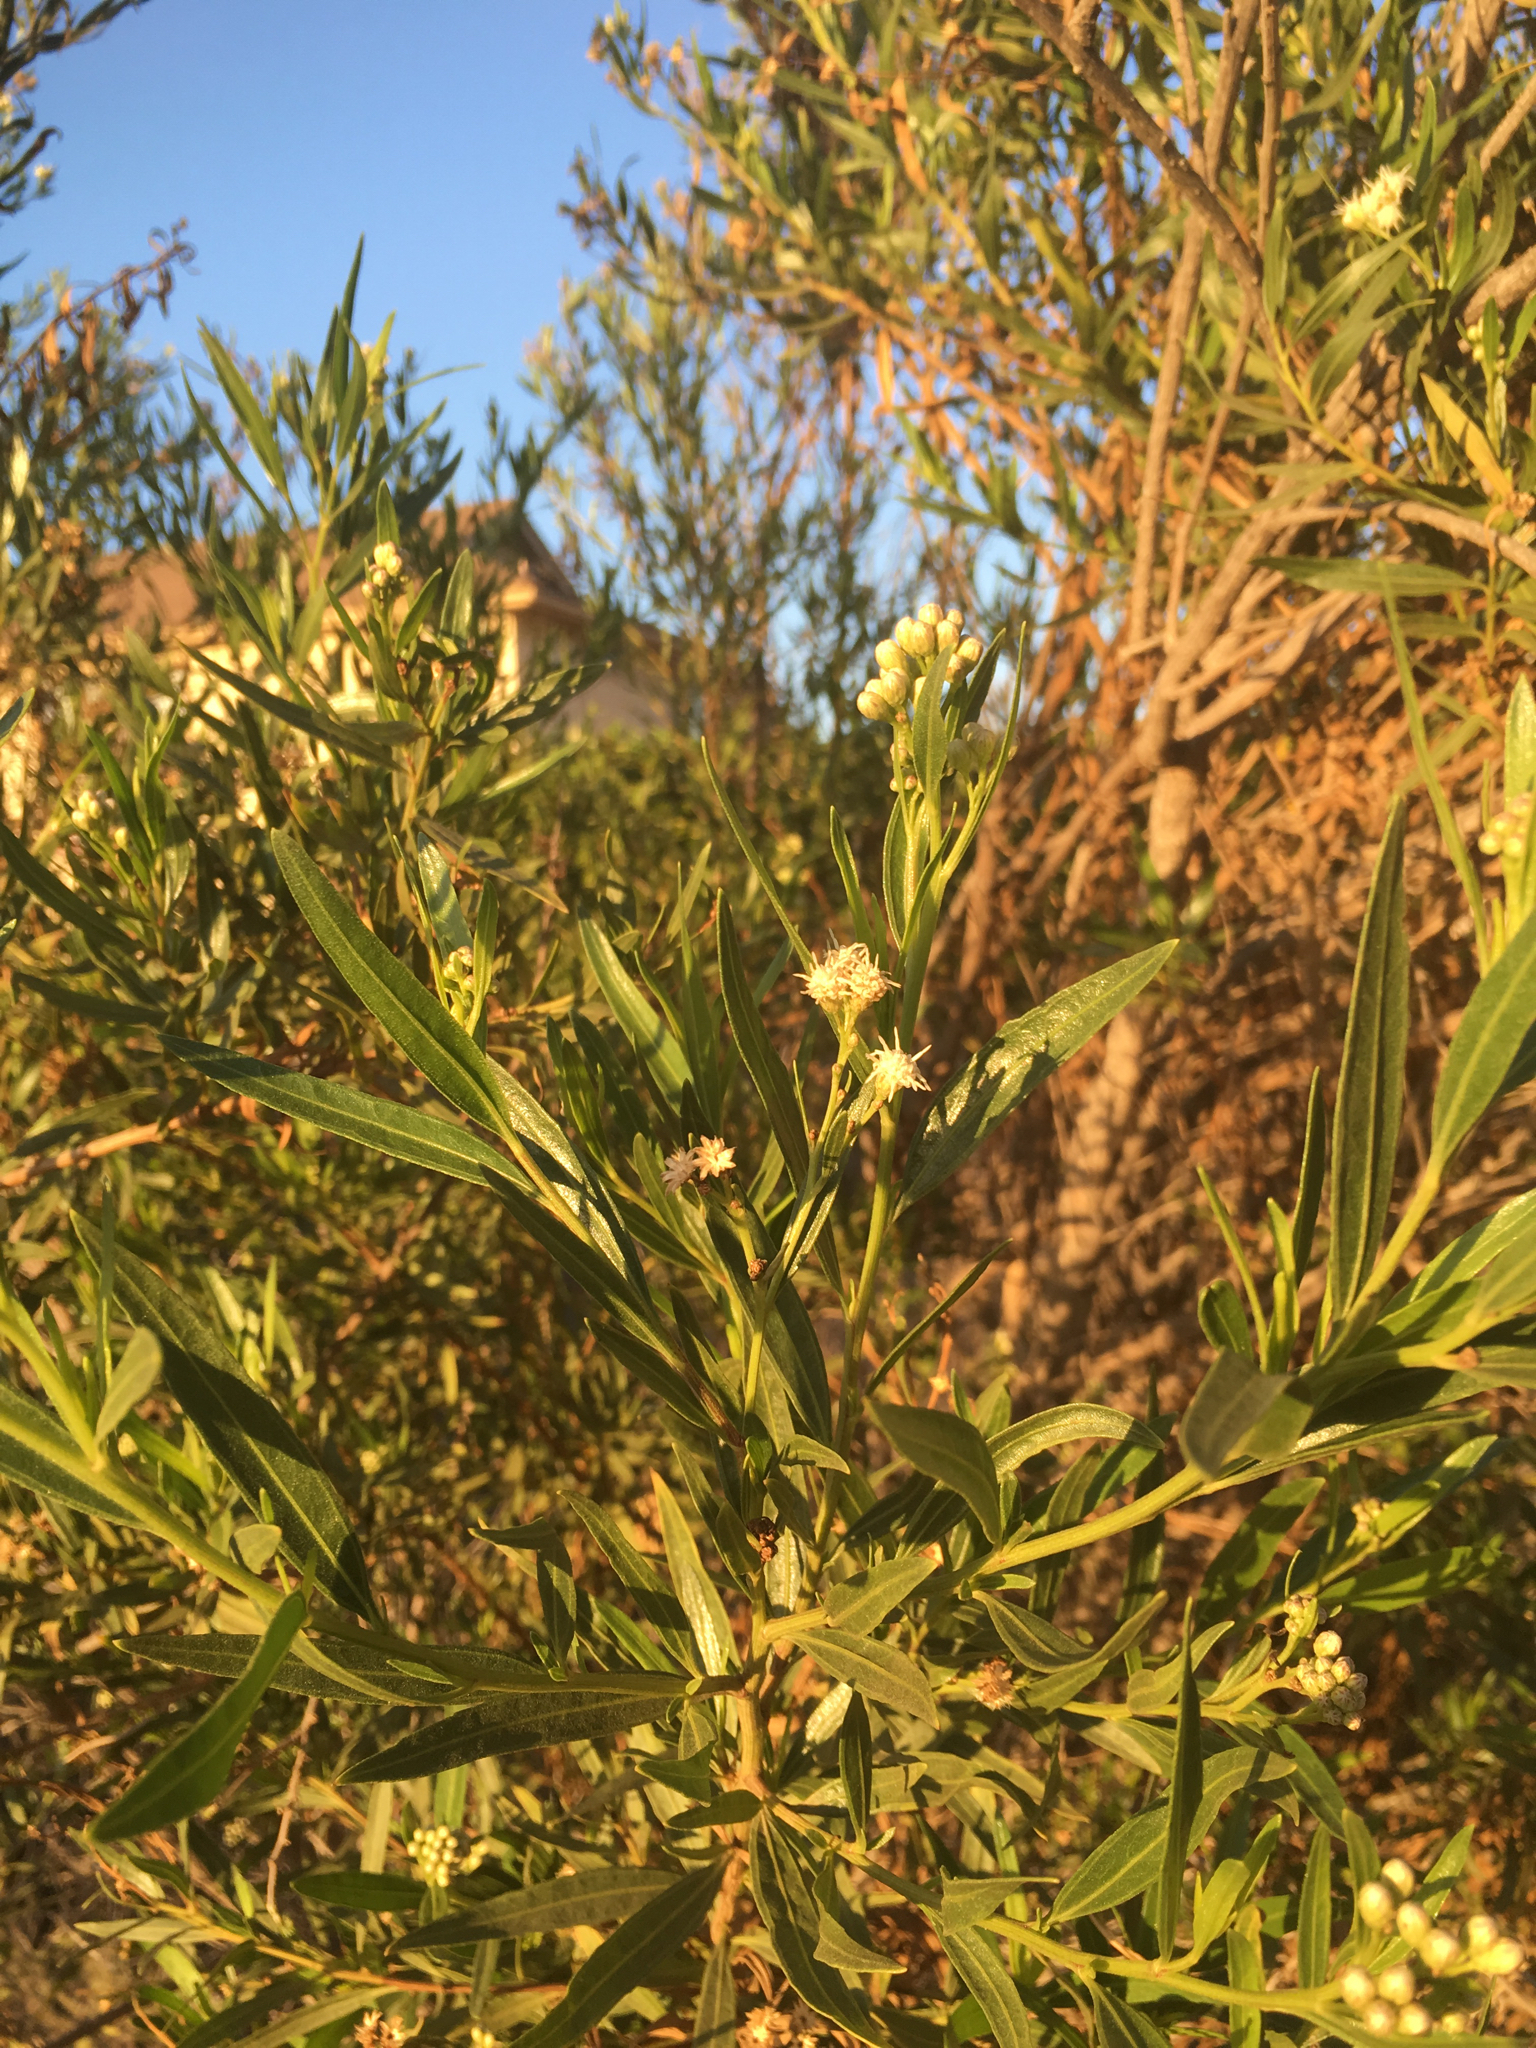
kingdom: Plantae
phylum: Tracheophyta
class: Magnoliopsida
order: Asterales
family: Asteraceae
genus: Baccharis
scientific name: Baccharis salicifolia
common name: Sticky baccharis
